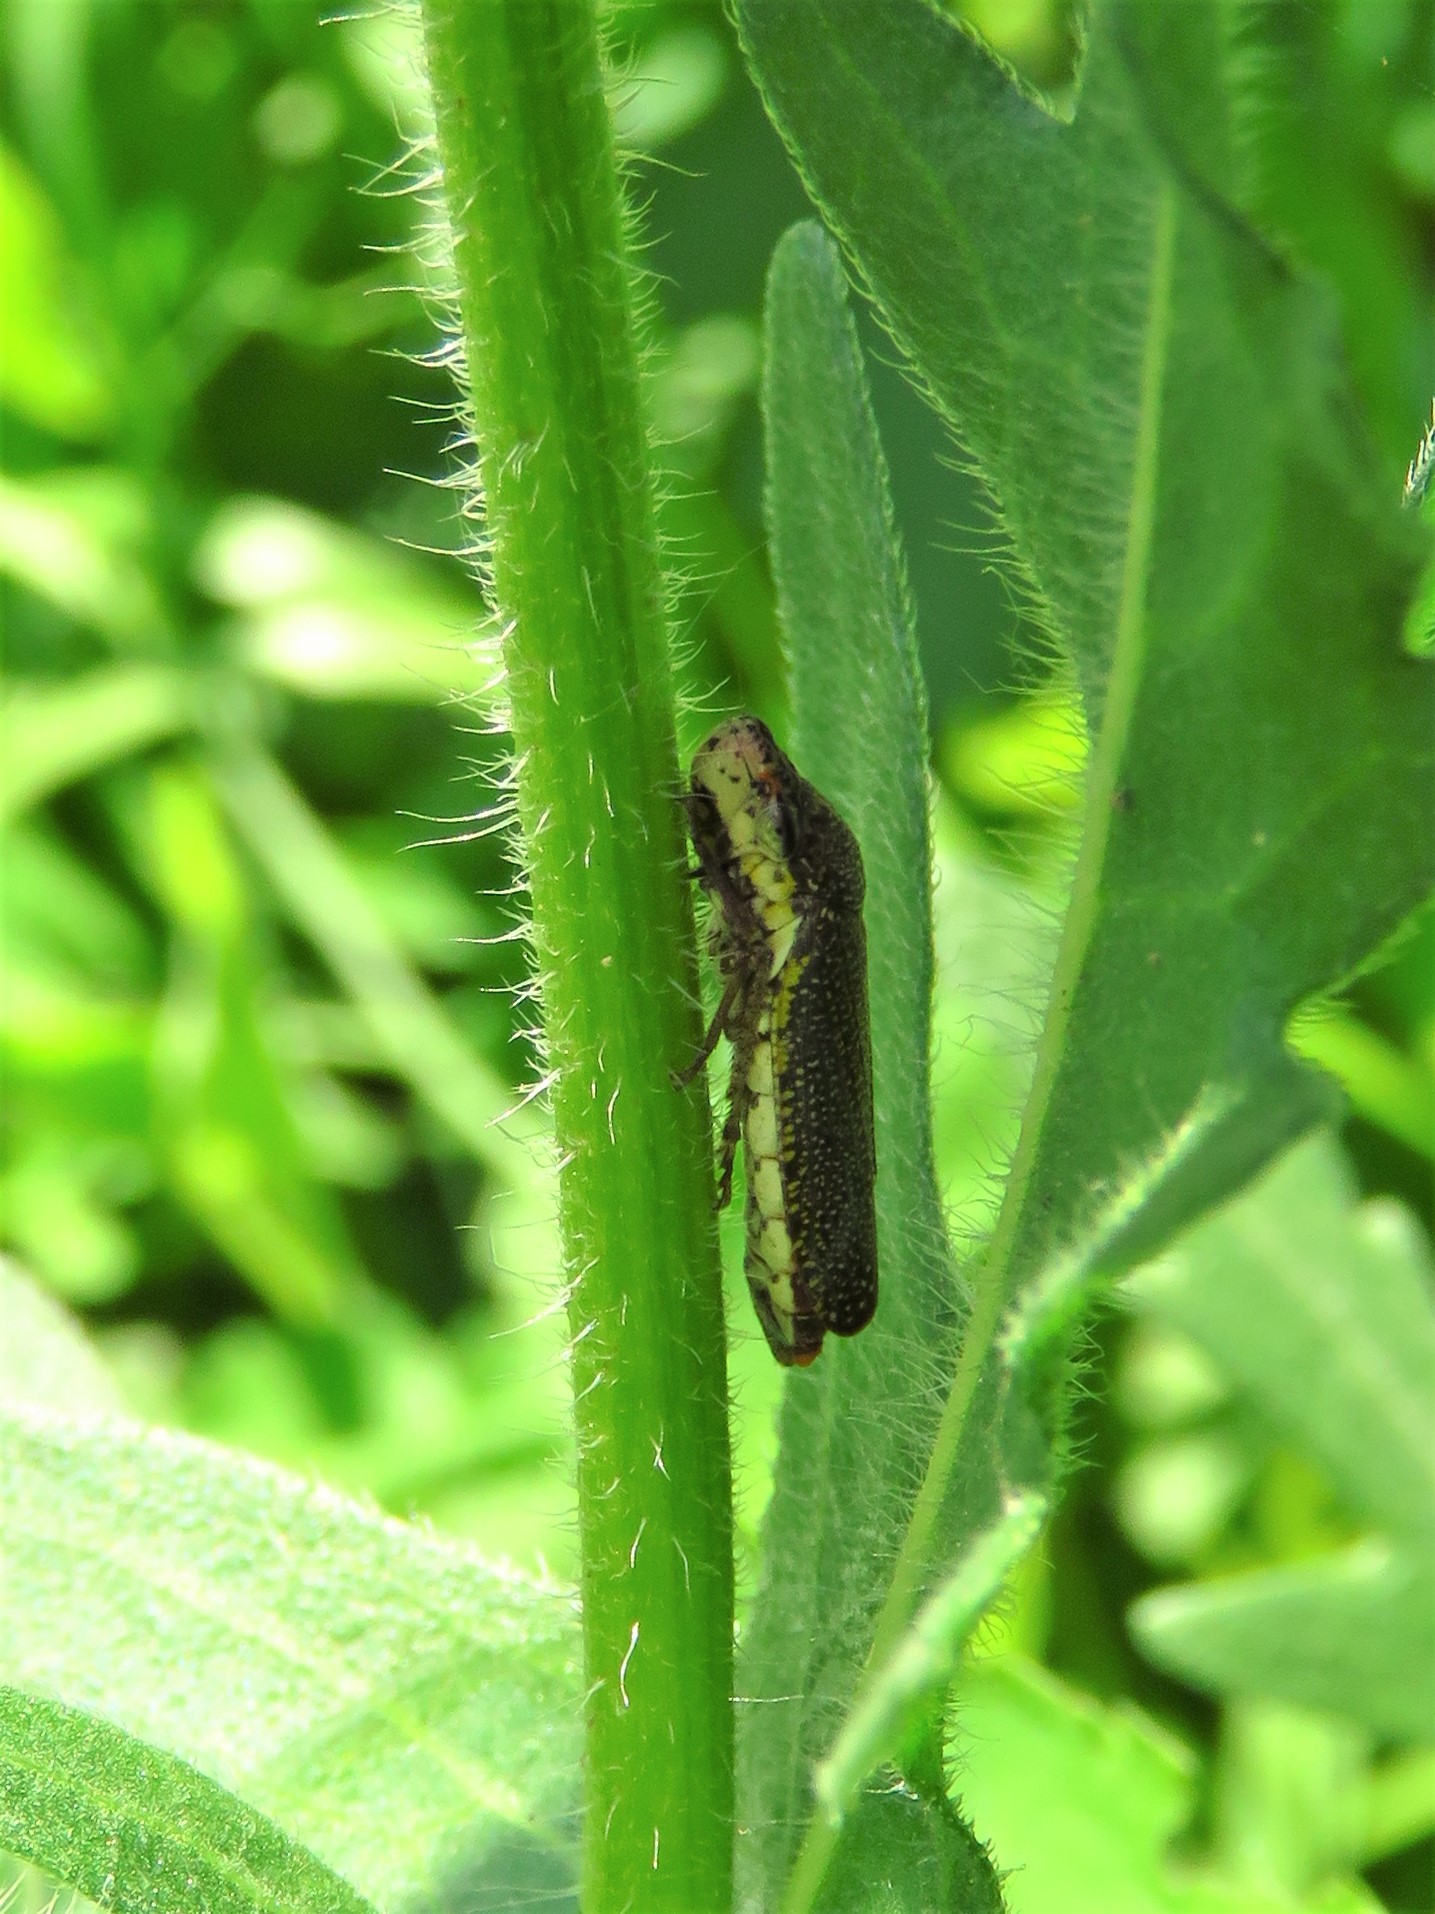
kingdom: Animalia
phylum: Arthropoda
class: Insecta
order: Hemiptera
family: Cicadellidae
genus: Paraulacizes
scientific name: Paraulacizes irrorata
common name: Speckled sharpshooter
